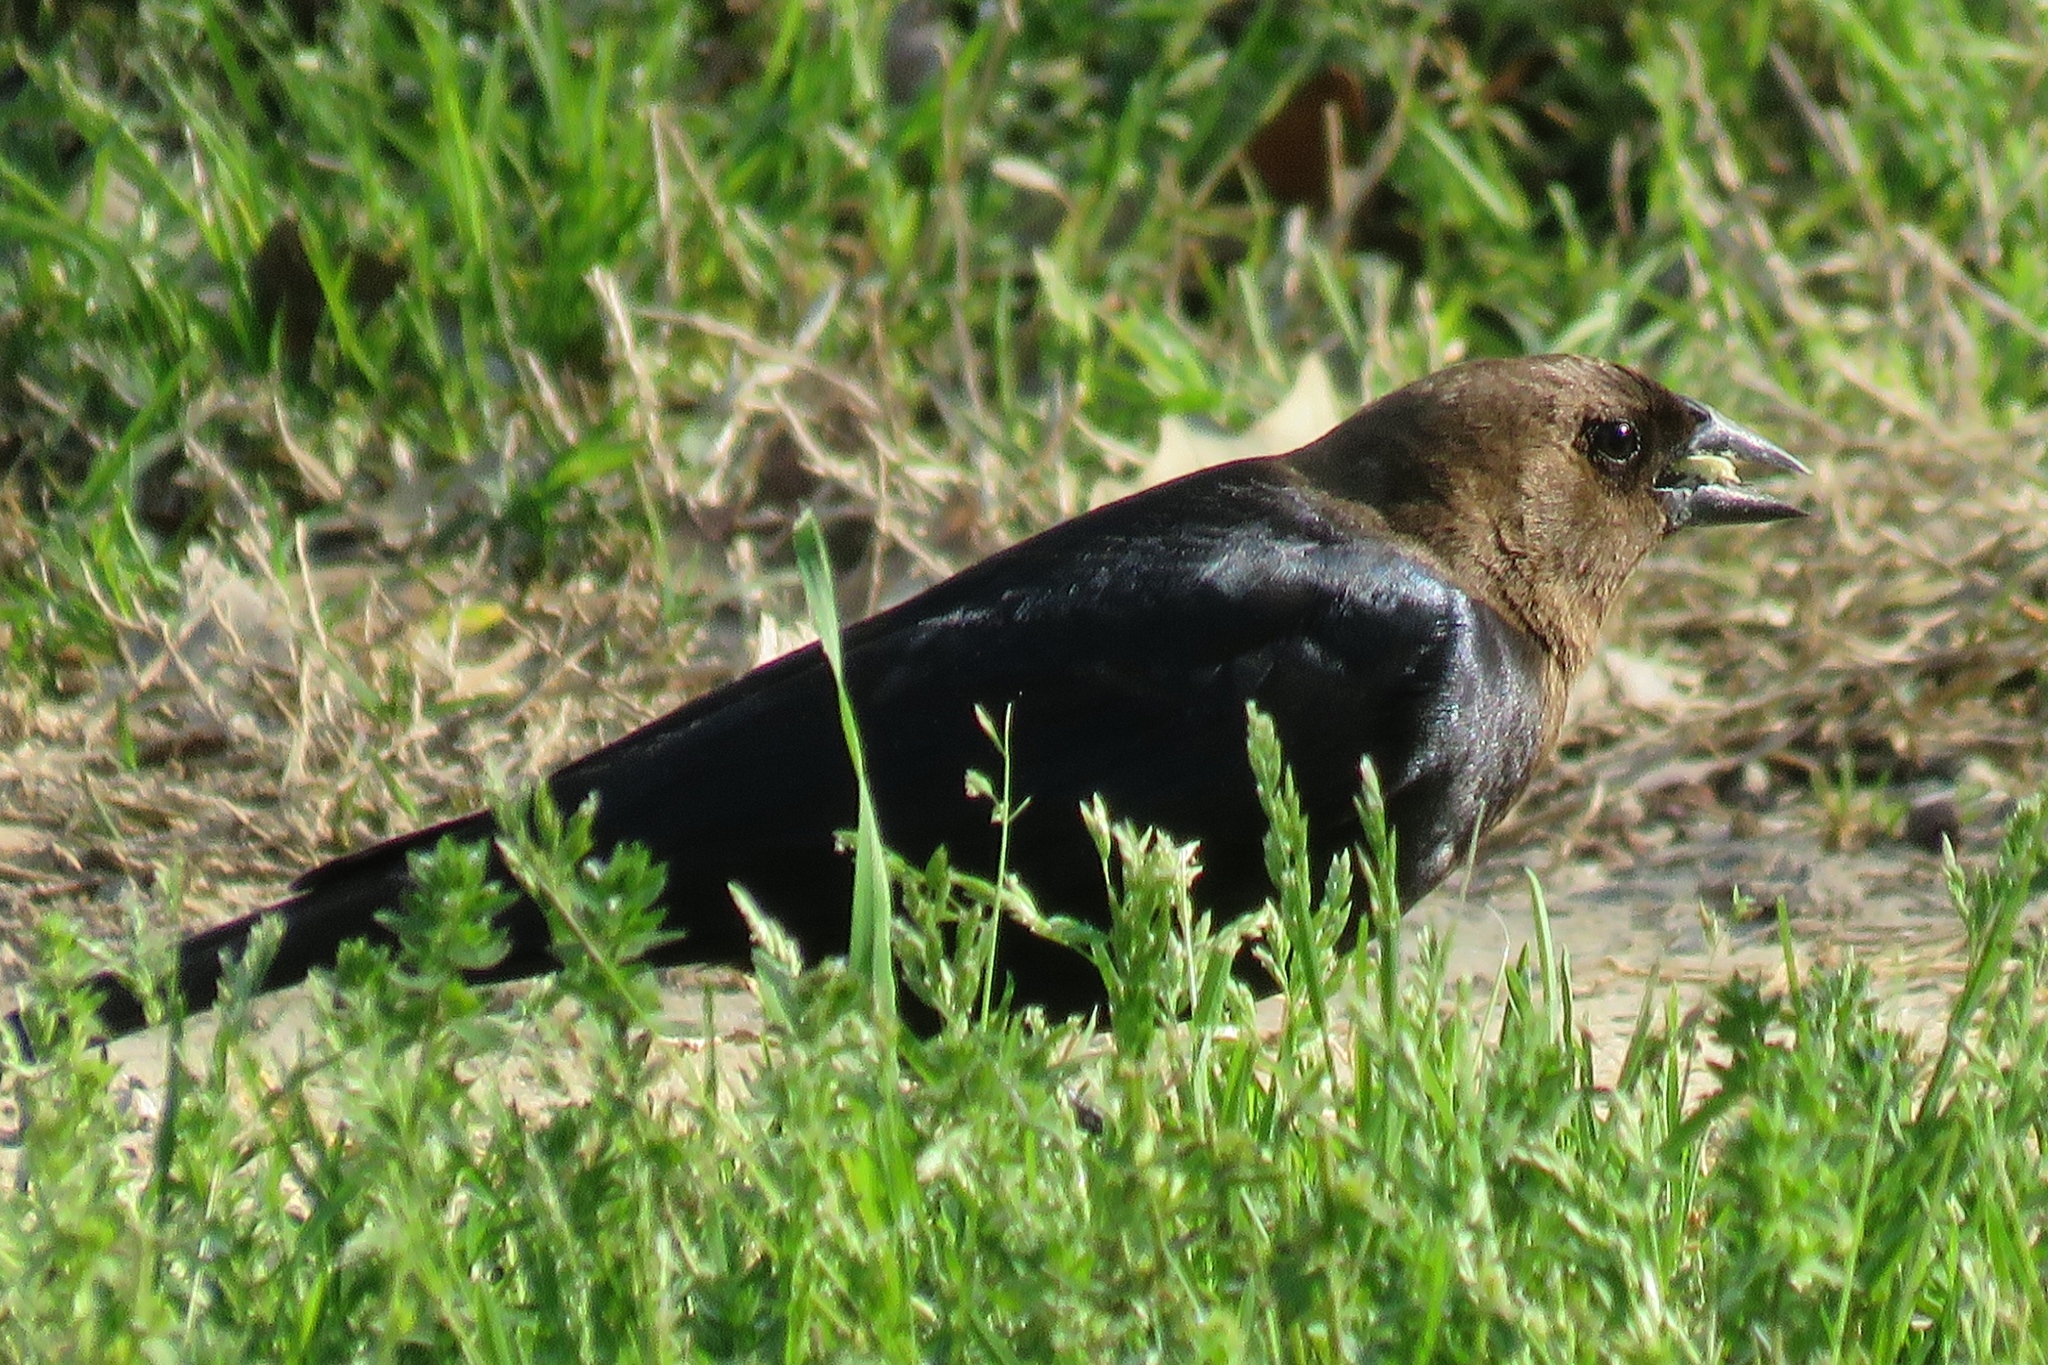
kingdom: Animalia
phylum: Chordata
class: Aves
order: Passeriformes
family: Icteridae
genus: Molothrus
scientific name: Molothrus ater
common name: Brown-headed cowbird
